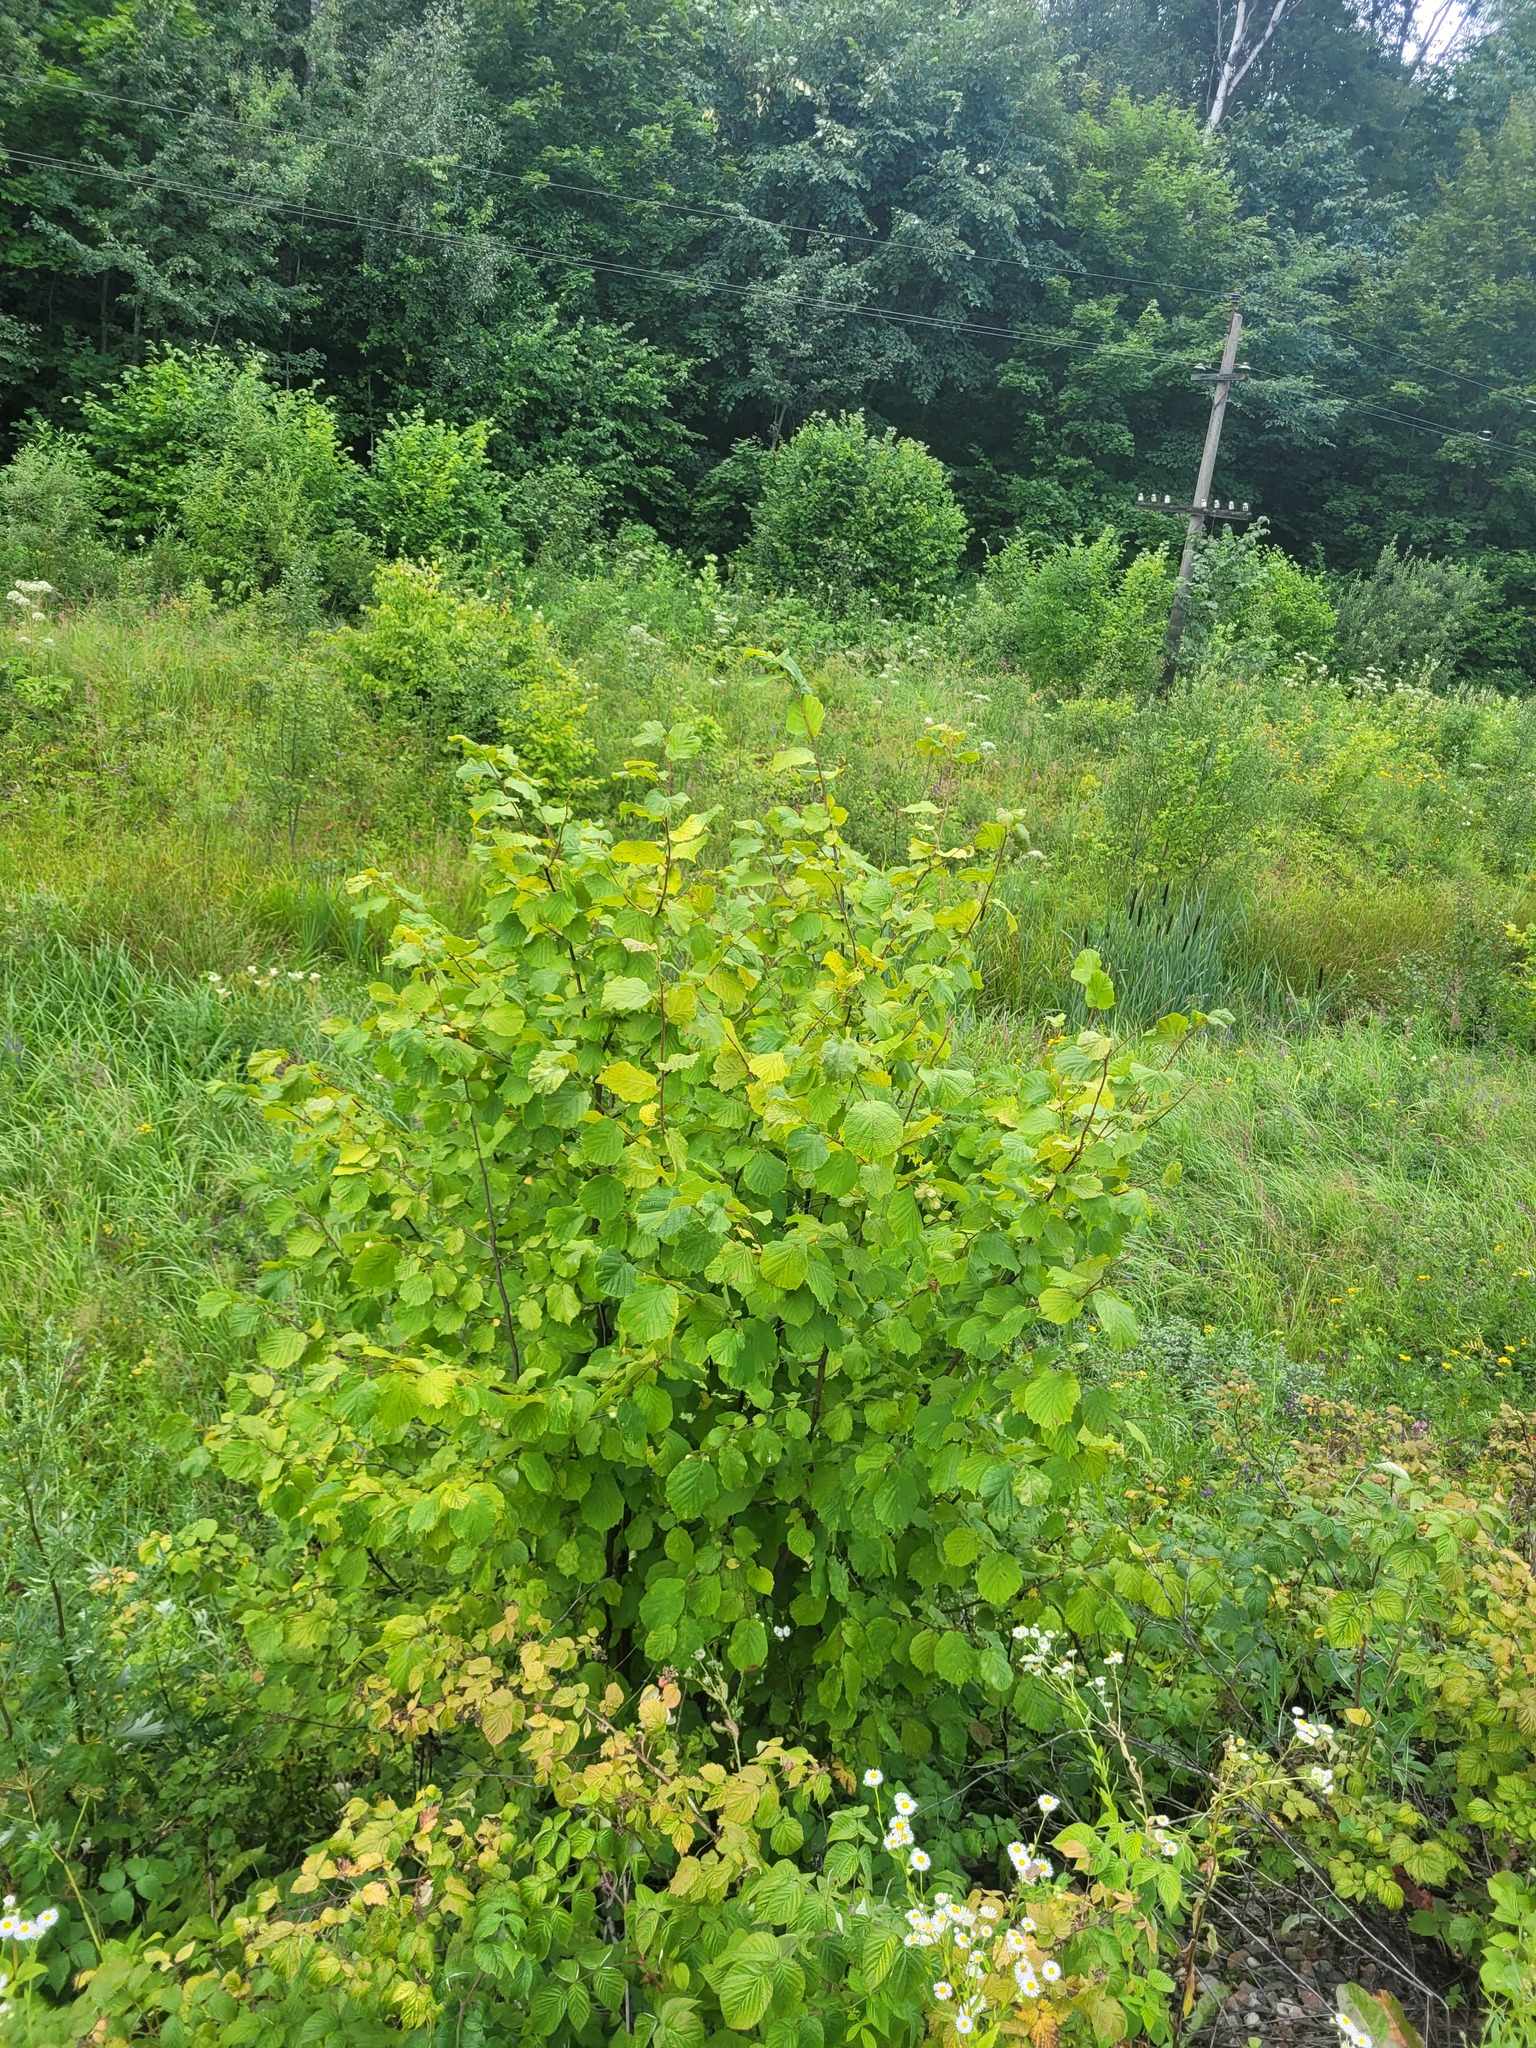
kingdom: Plantae
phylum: Tracheophyta
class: Magnoliopsida
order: Fagales
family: Betulaceae
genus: Corylus
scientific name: Corylus avellana
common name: European hazel
